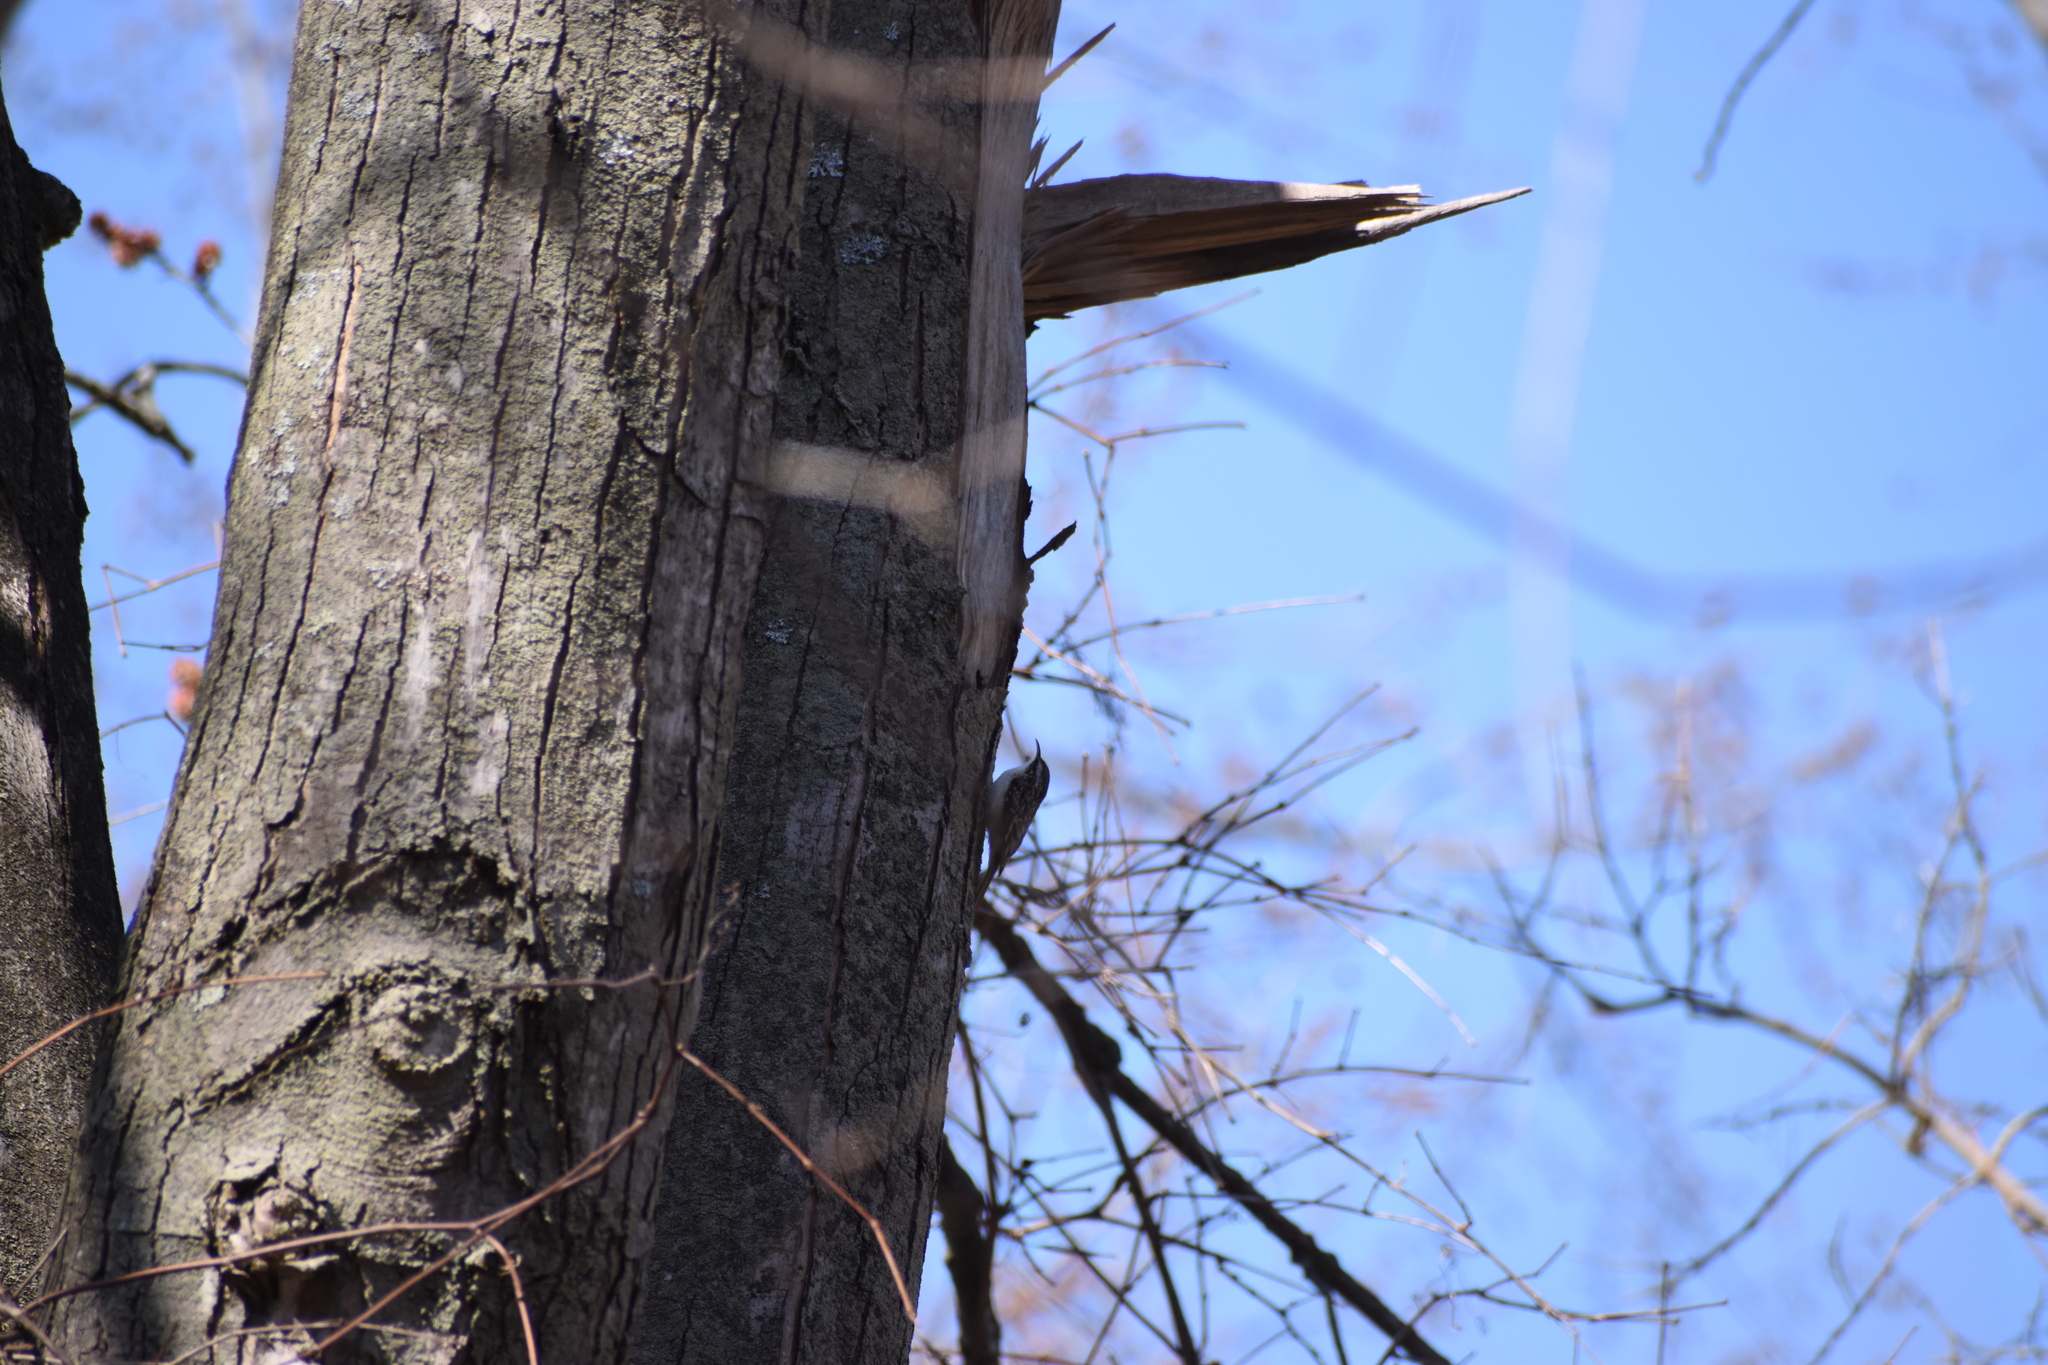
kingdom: Animalia
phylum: Chordata
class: Aves
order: Passeriformes
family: Certhiidae
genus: Certhia
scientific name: Certhia americana
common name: Brown creeper
